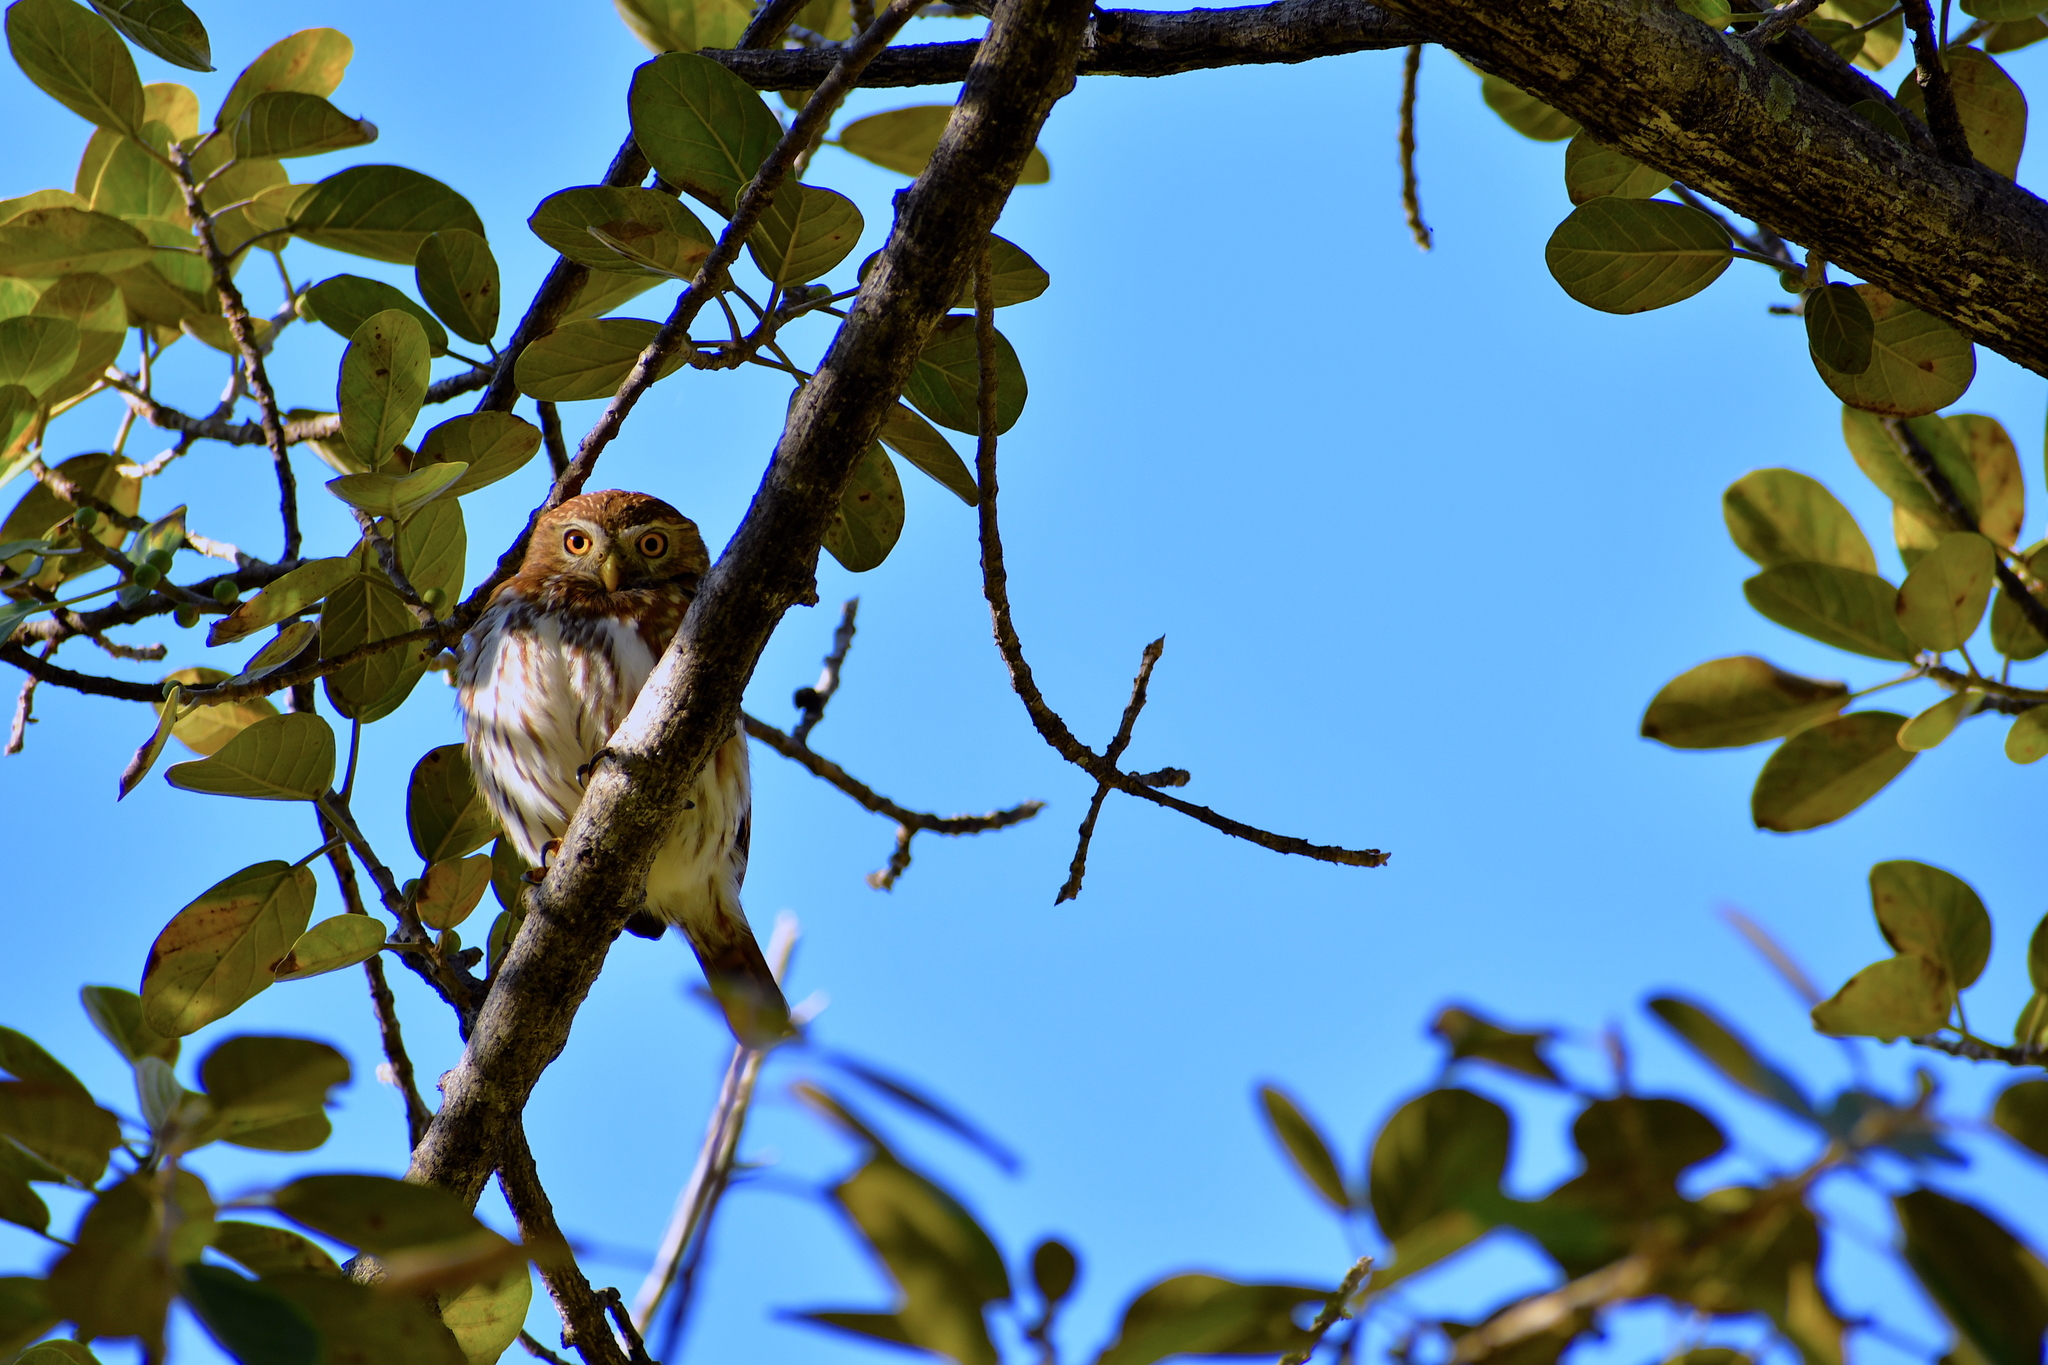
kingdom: Animalia
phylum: Chordata
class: Aves
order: Strigiformes
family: Strigidae
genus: Glaucidium
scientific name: Glaucidium brasilianum
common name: Ferruginous pygmy-owl
